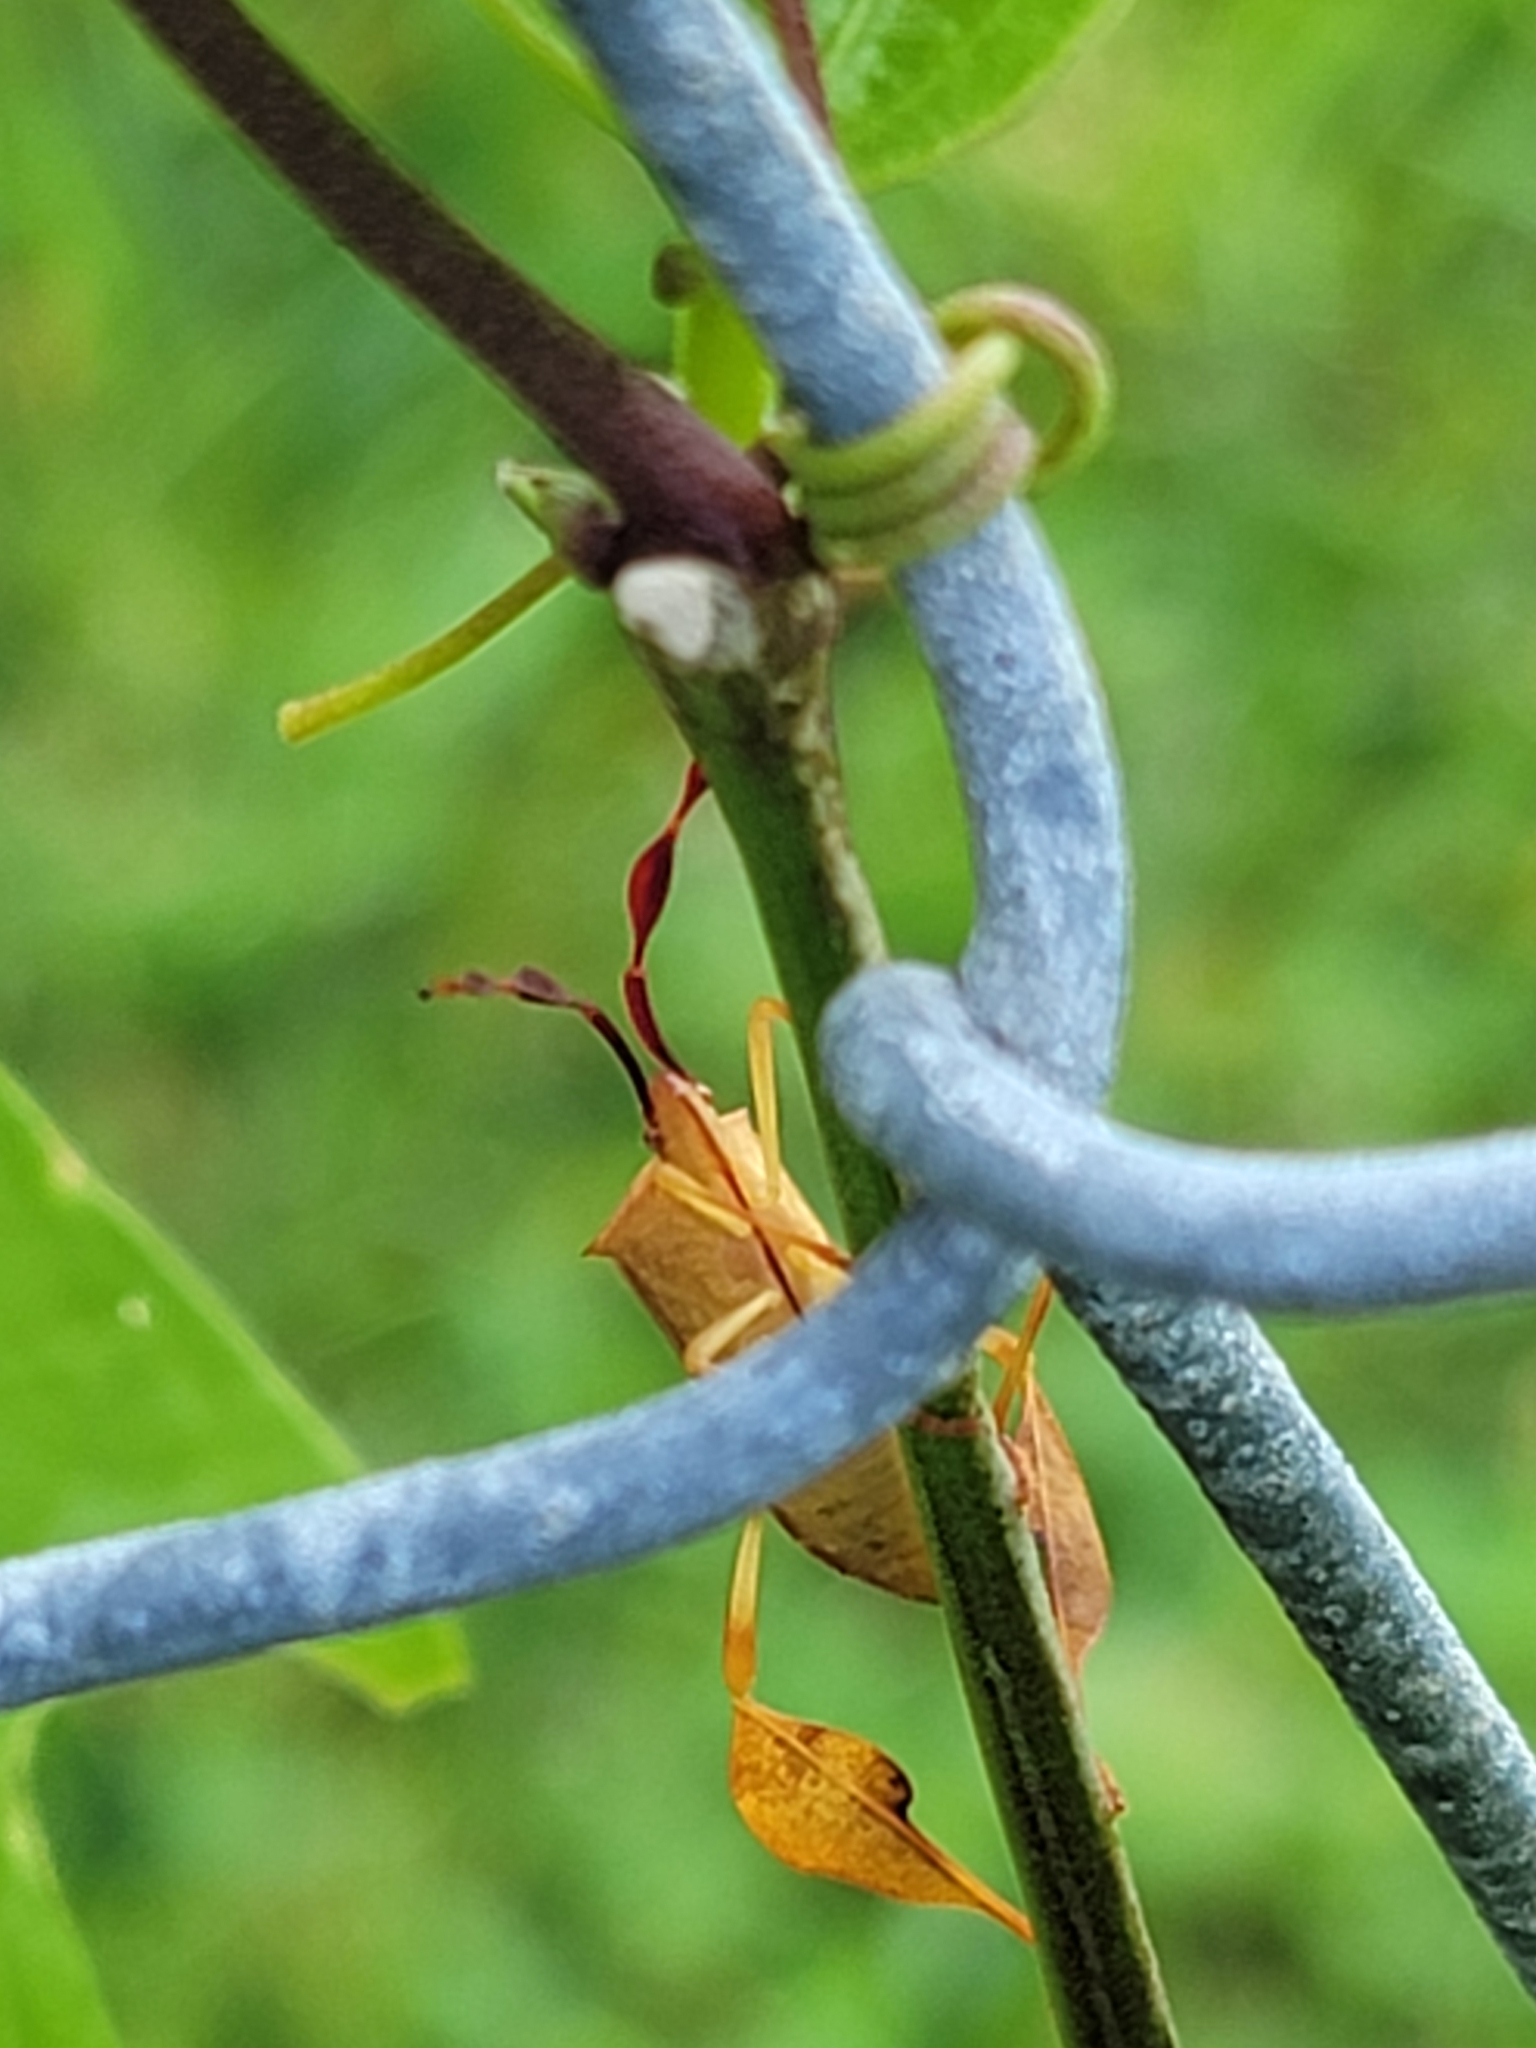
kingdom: Animalia
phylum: Arthropoda
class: Insecta
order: Hemiptera
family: Coreidae
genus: Chondrocera
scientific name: Chondrocera laticornis
